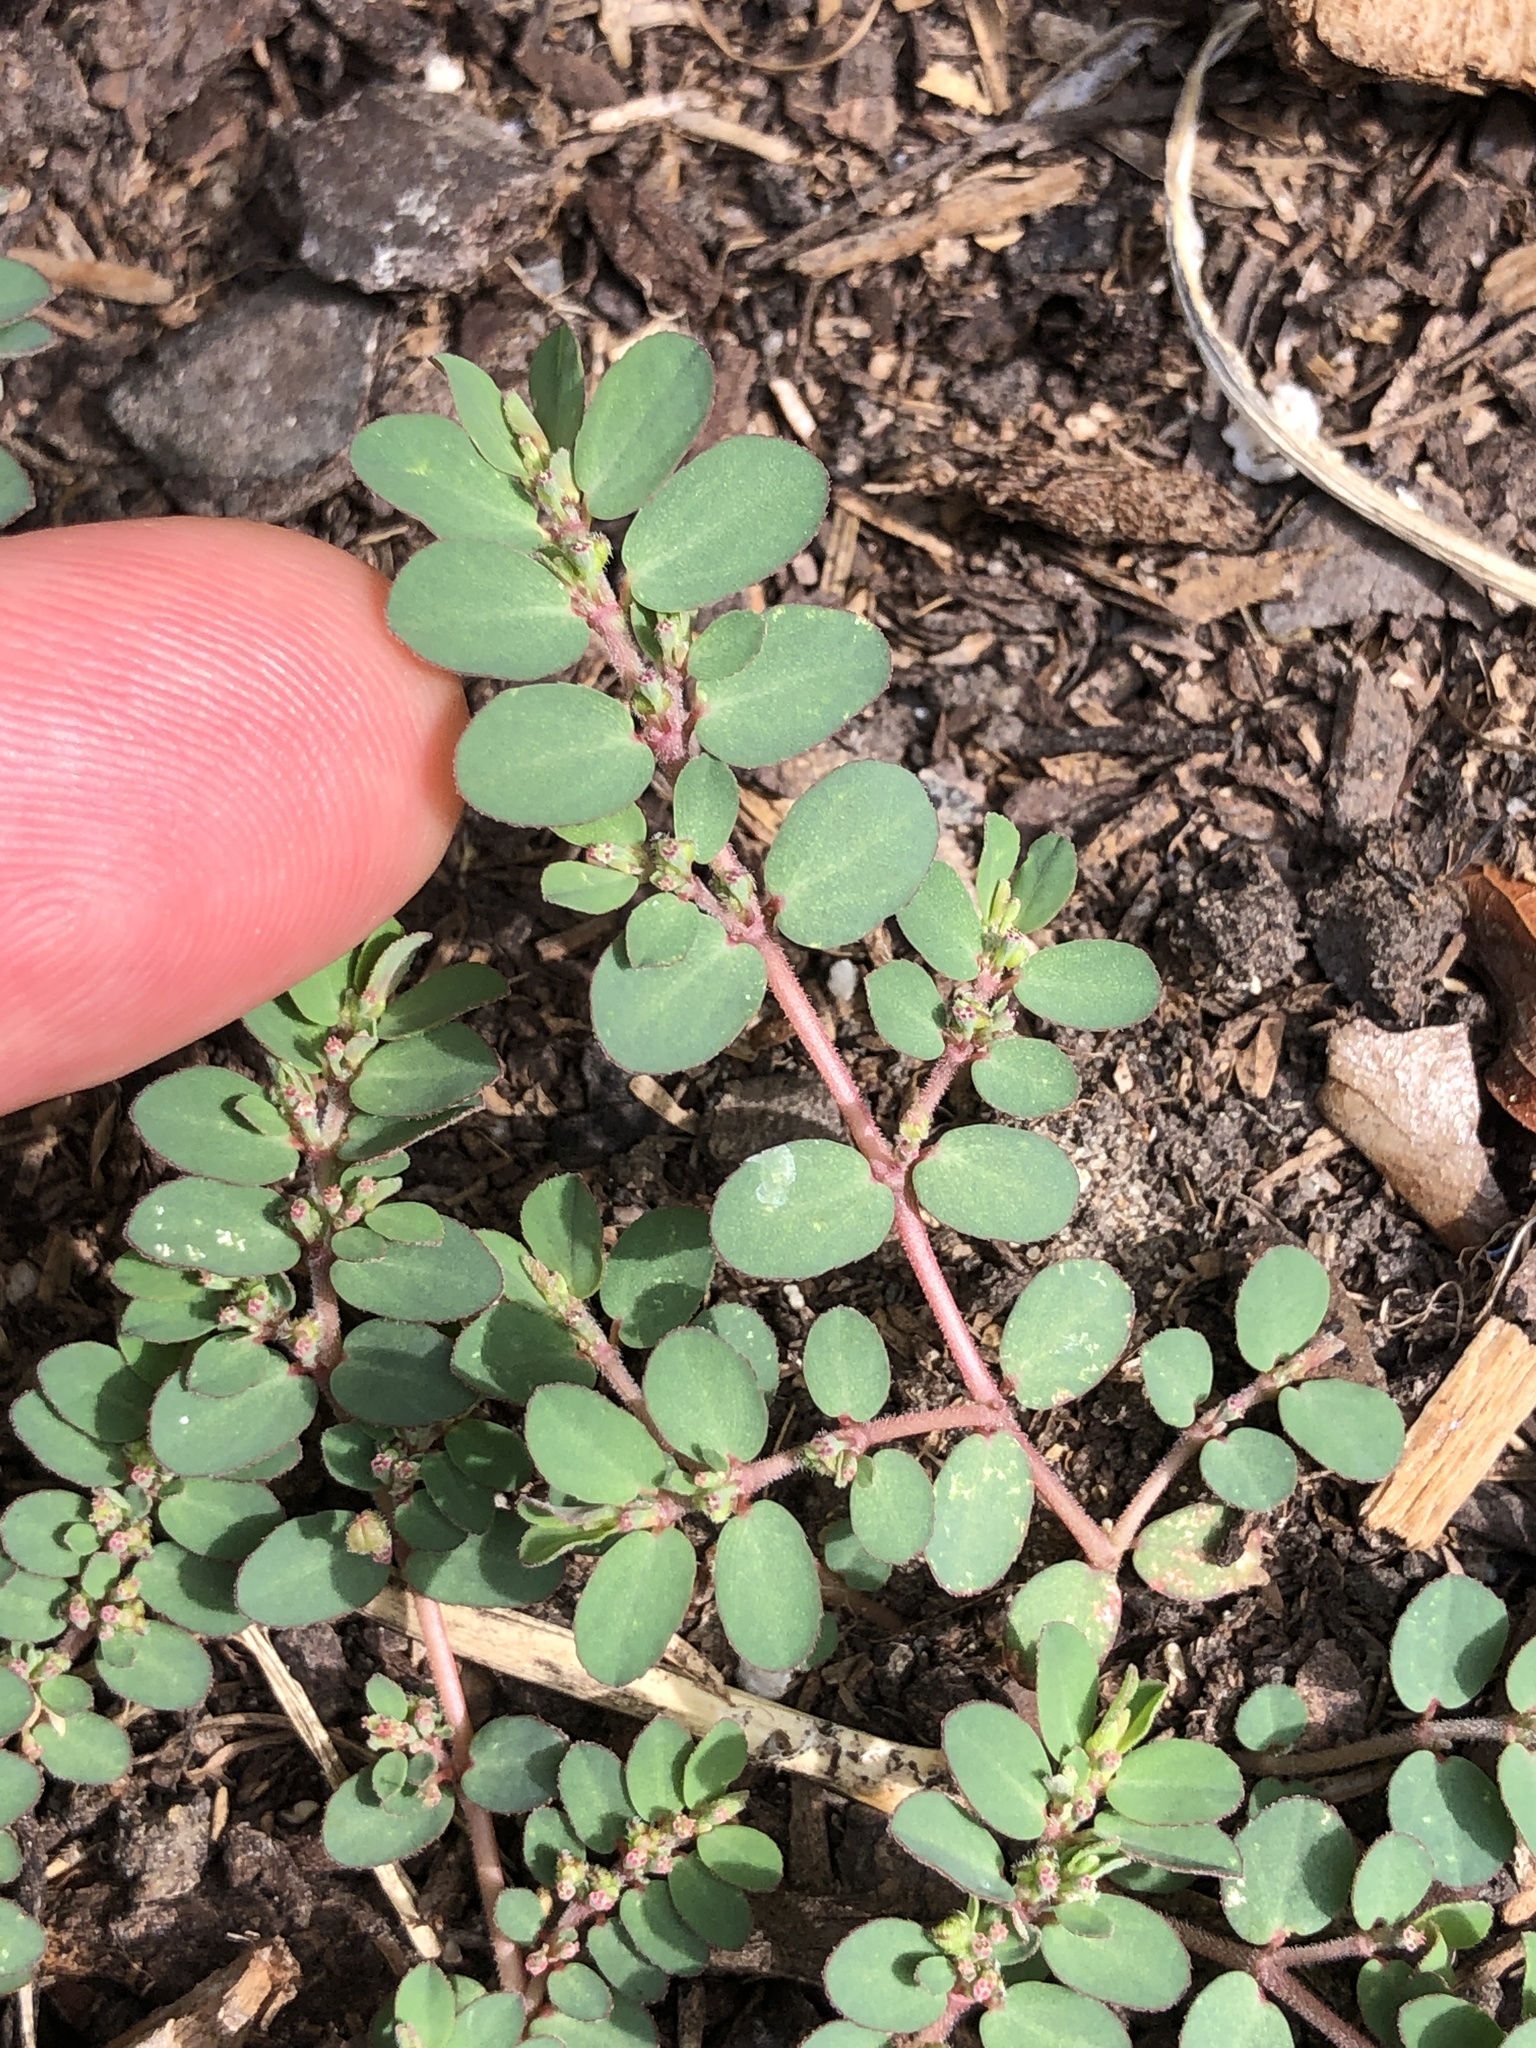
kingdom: Plantae
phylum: Tracheophyta
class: Magnoliopsida
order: Malpighiales
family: Euphorbiaceae
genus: Euphorbia
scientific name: Euphorbia prostrata
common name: Prostrate sandmat
